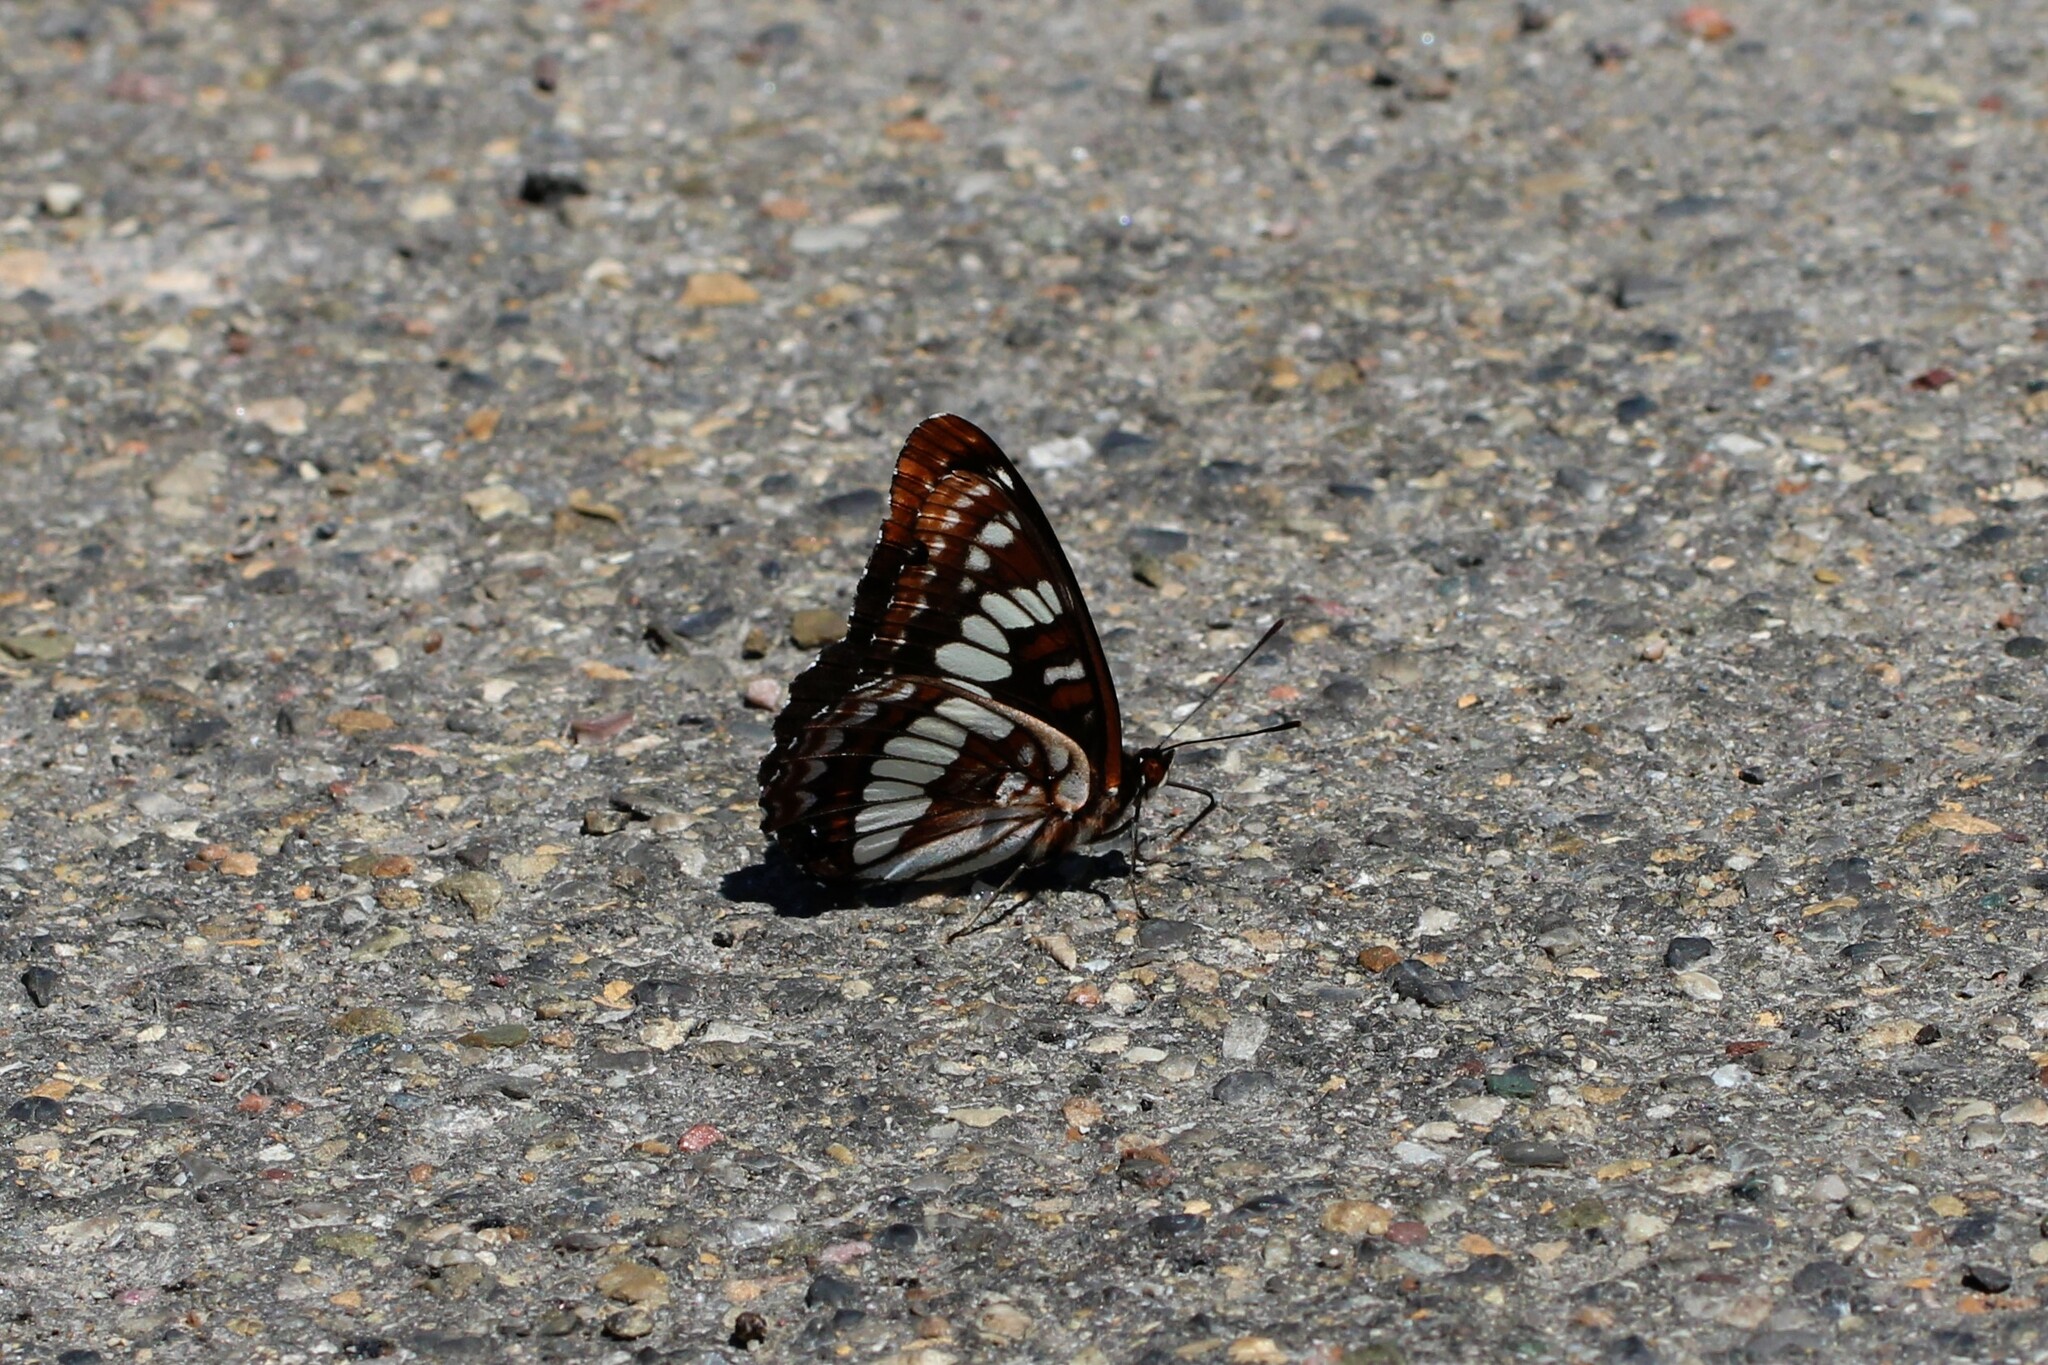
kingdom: Animalia
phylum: Arthropoda
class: Insecta
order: Lepidoptera
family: Nymphalidae
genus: Limenitis
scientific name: Limenitis lorquini
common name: Lorquin's admiral
